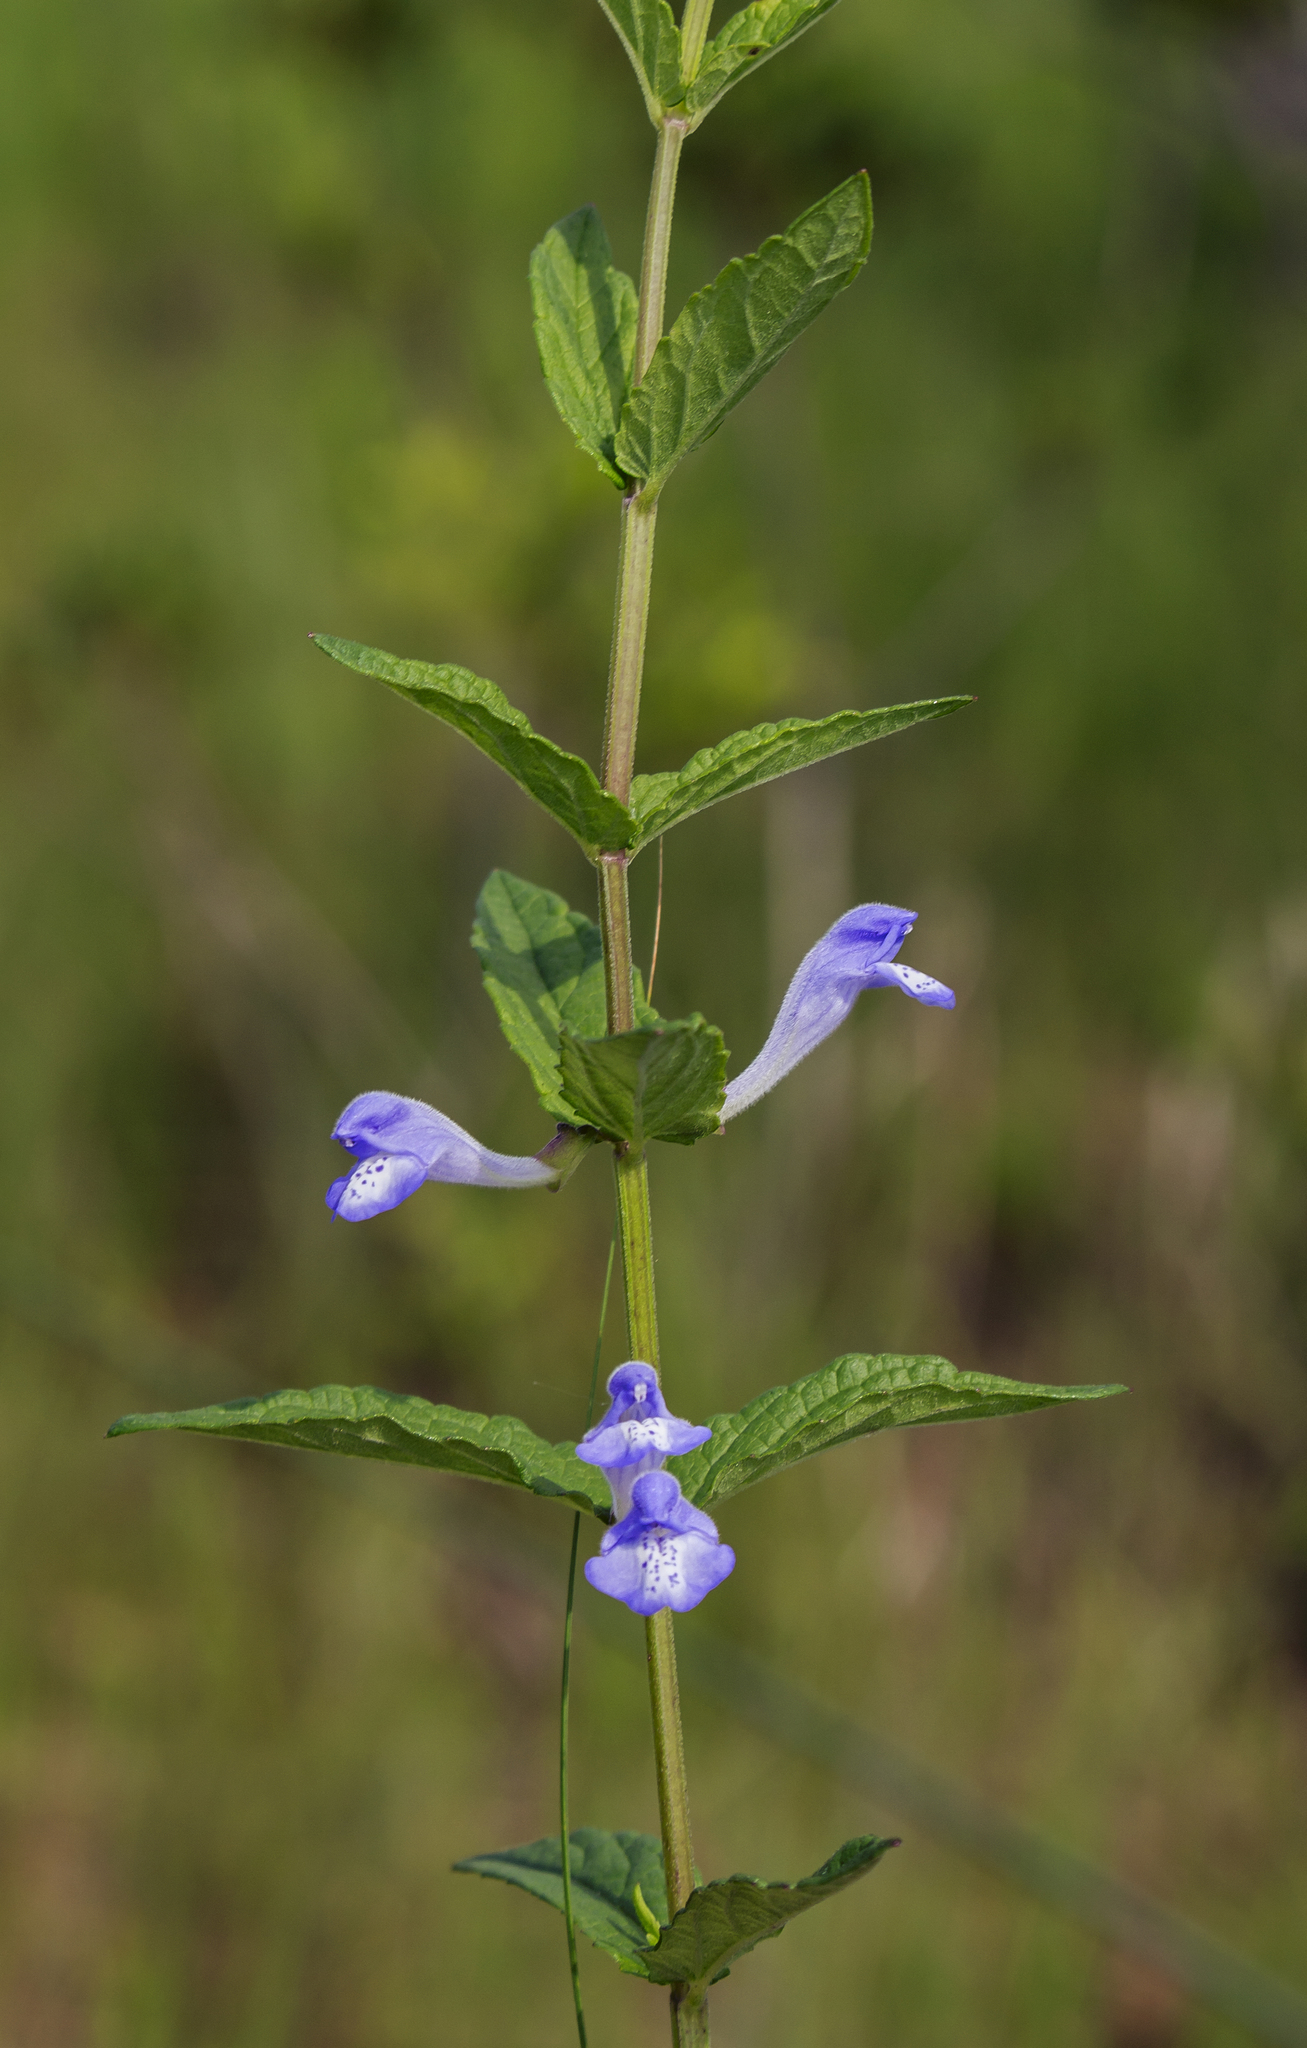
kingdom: Plantae
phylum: Tracheophyta
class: Magnoliopsida
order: Lamiales
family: Lamiaceae
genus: Scutellaria
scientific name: Scutellaria galericulata
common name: Skullcap
